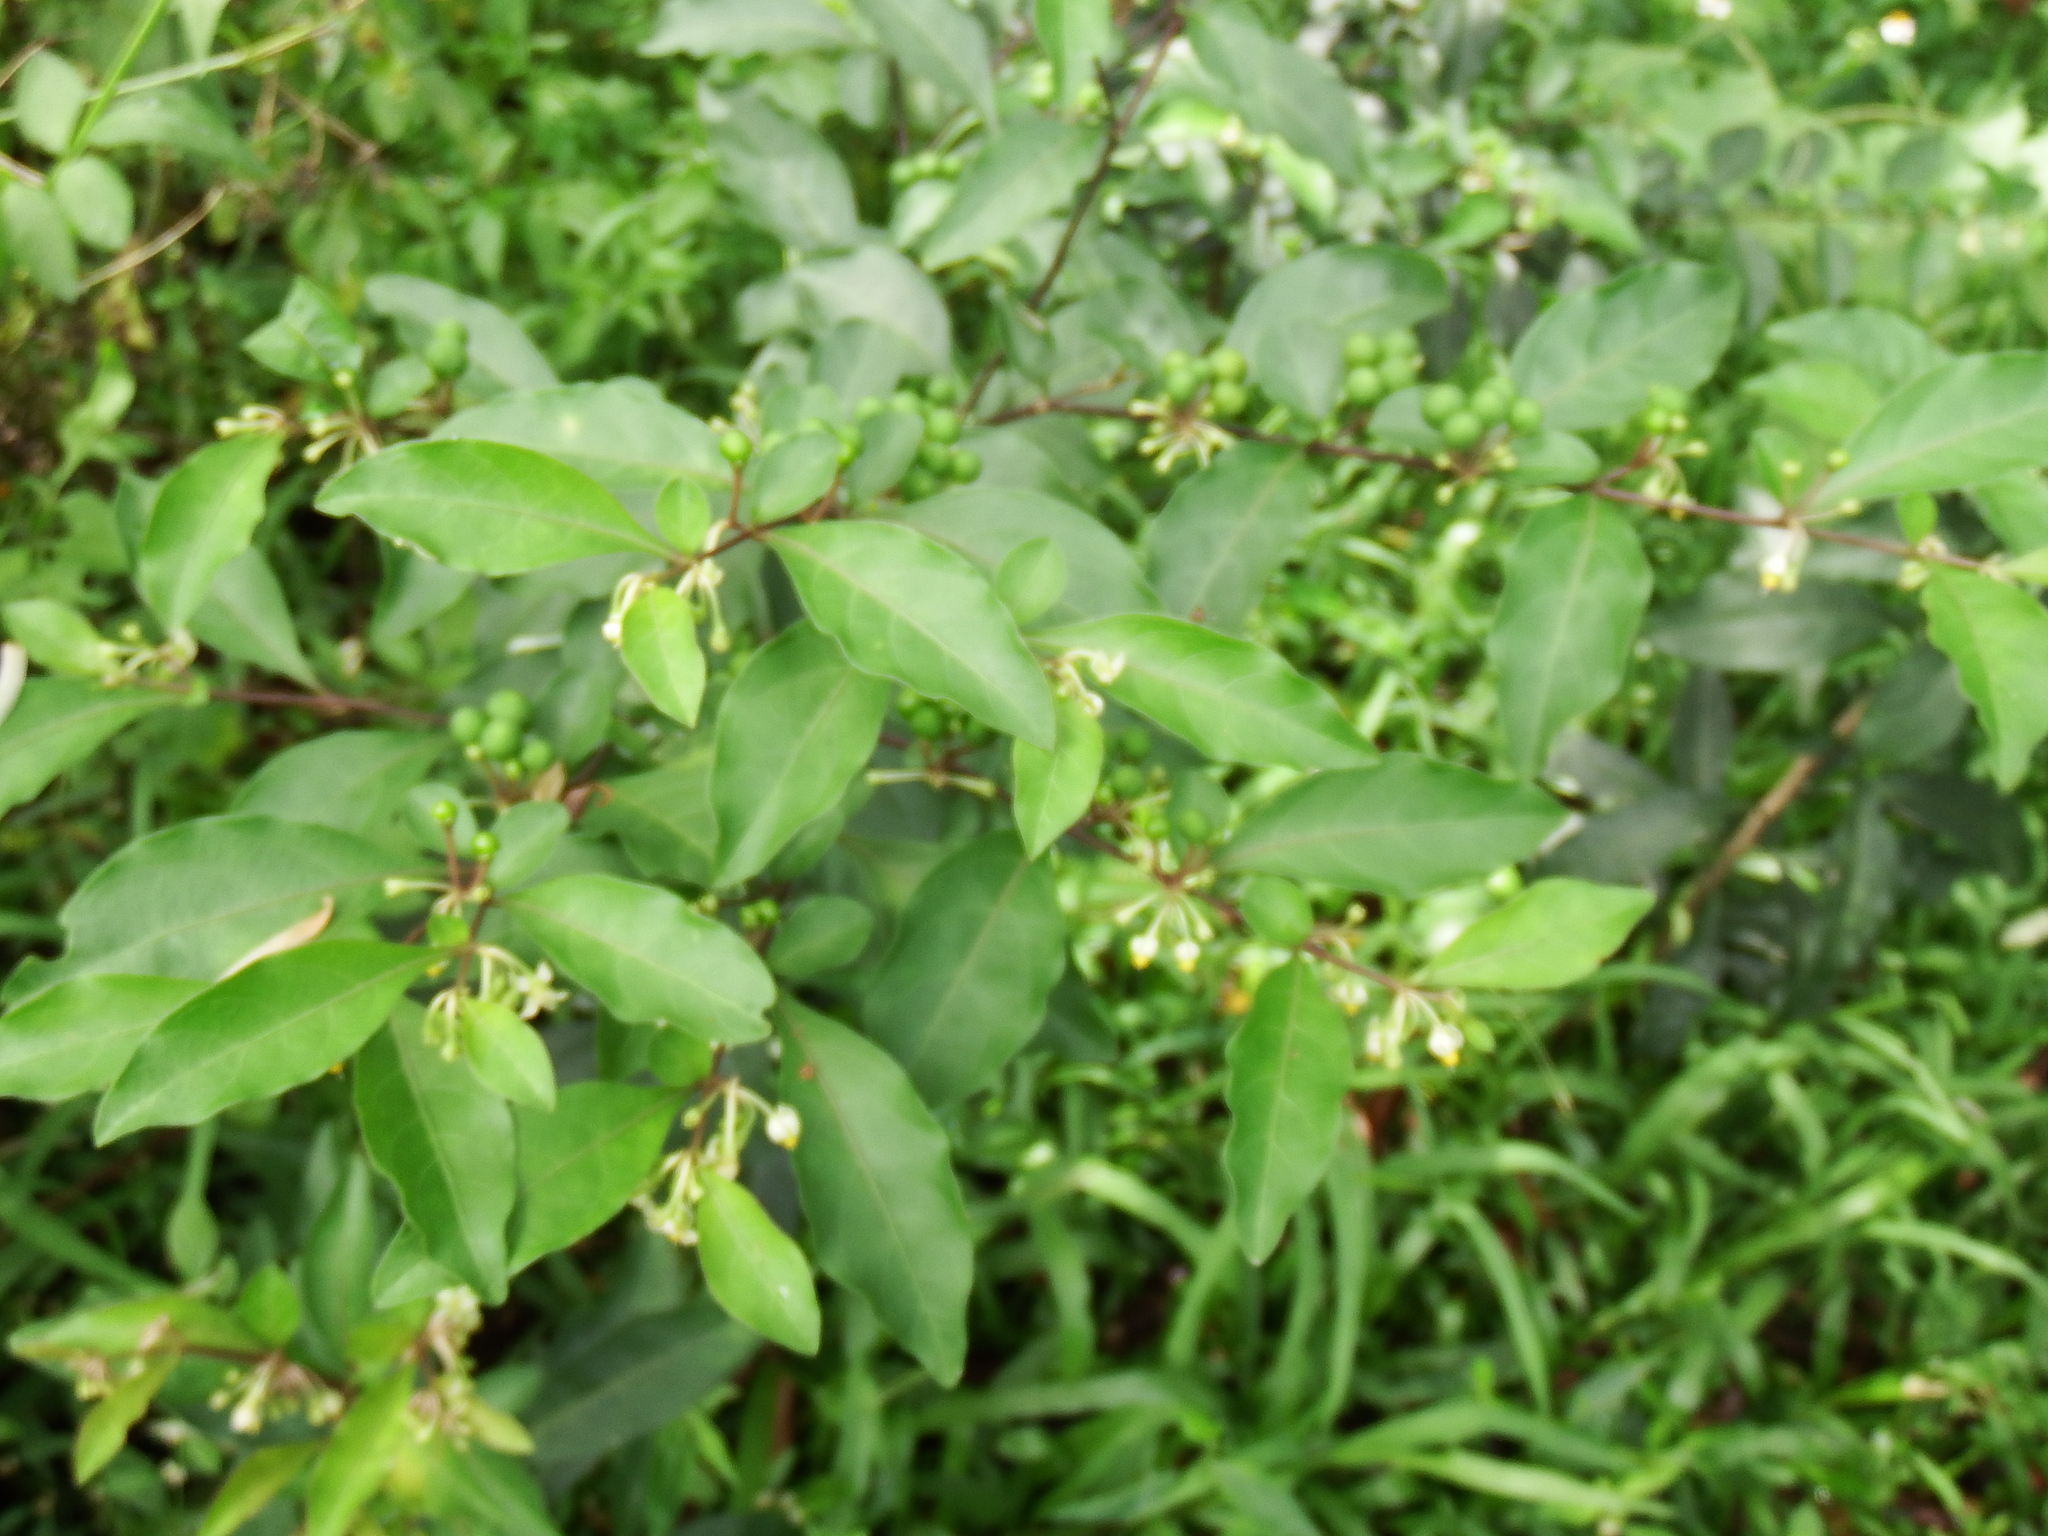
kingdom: Plantae
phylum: Tracheophyta
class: Magnoliopsida
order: Solanales
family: Solanaceae
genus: Solanum
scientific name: Solanum diphyllum
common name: Twoleaf nightshade
